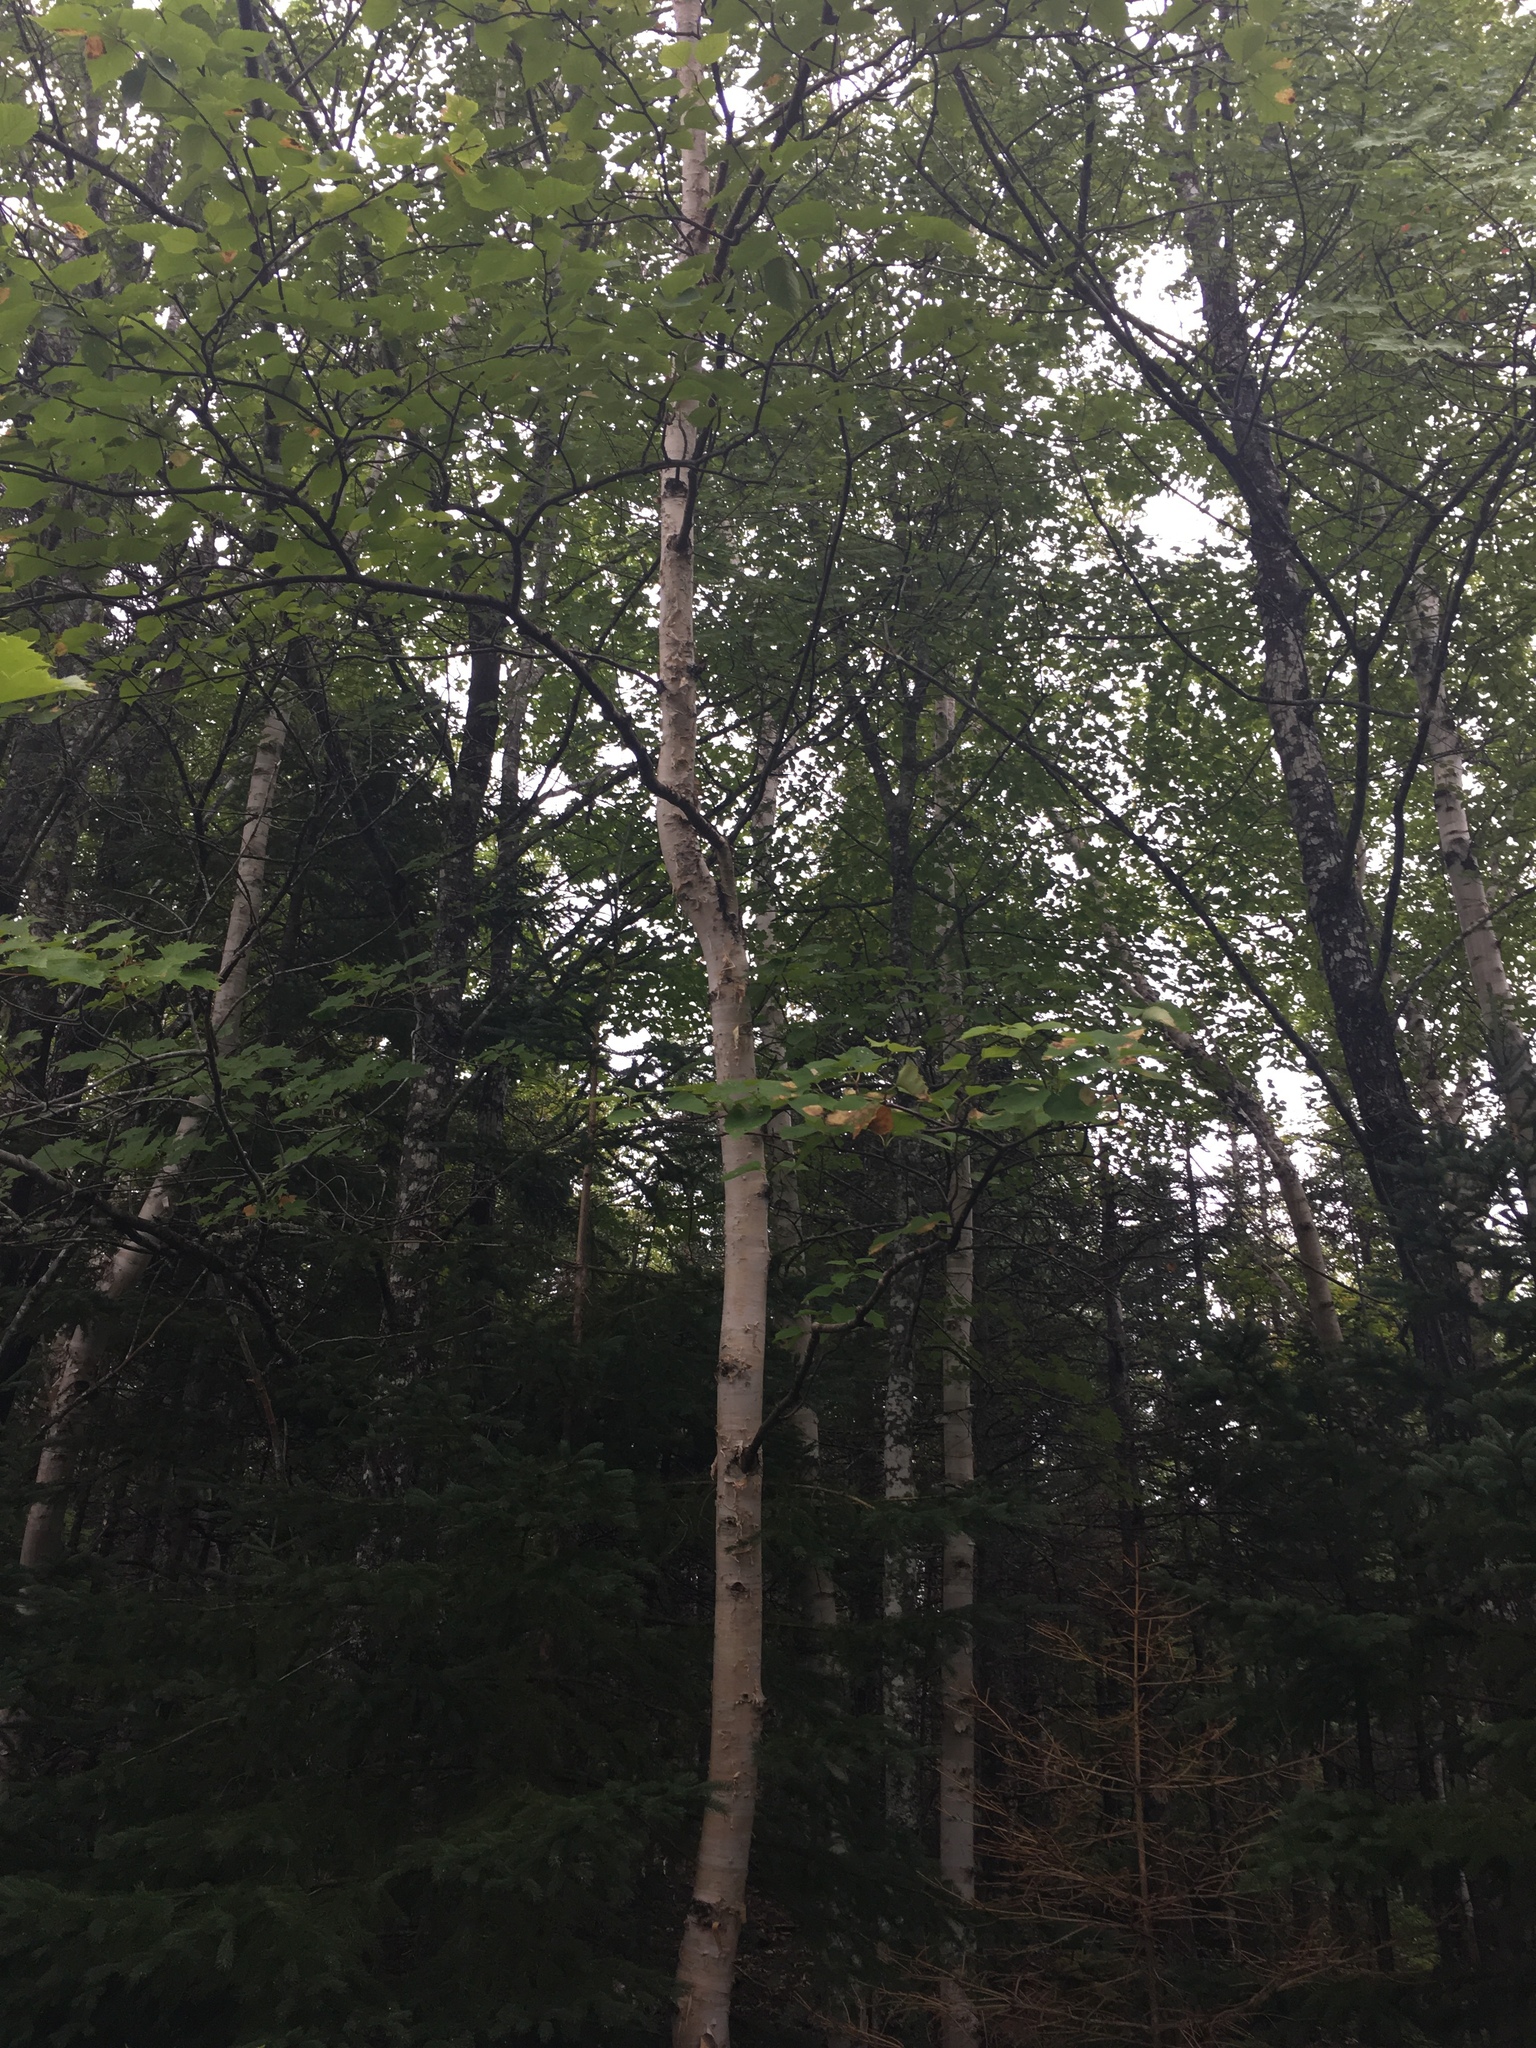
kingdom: Plantae
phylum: Tracheophyta
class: Magnoliopsida
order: Fagales
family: Betulaceae
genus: Betula
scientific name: Betula papyrifera
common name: Paper birch
